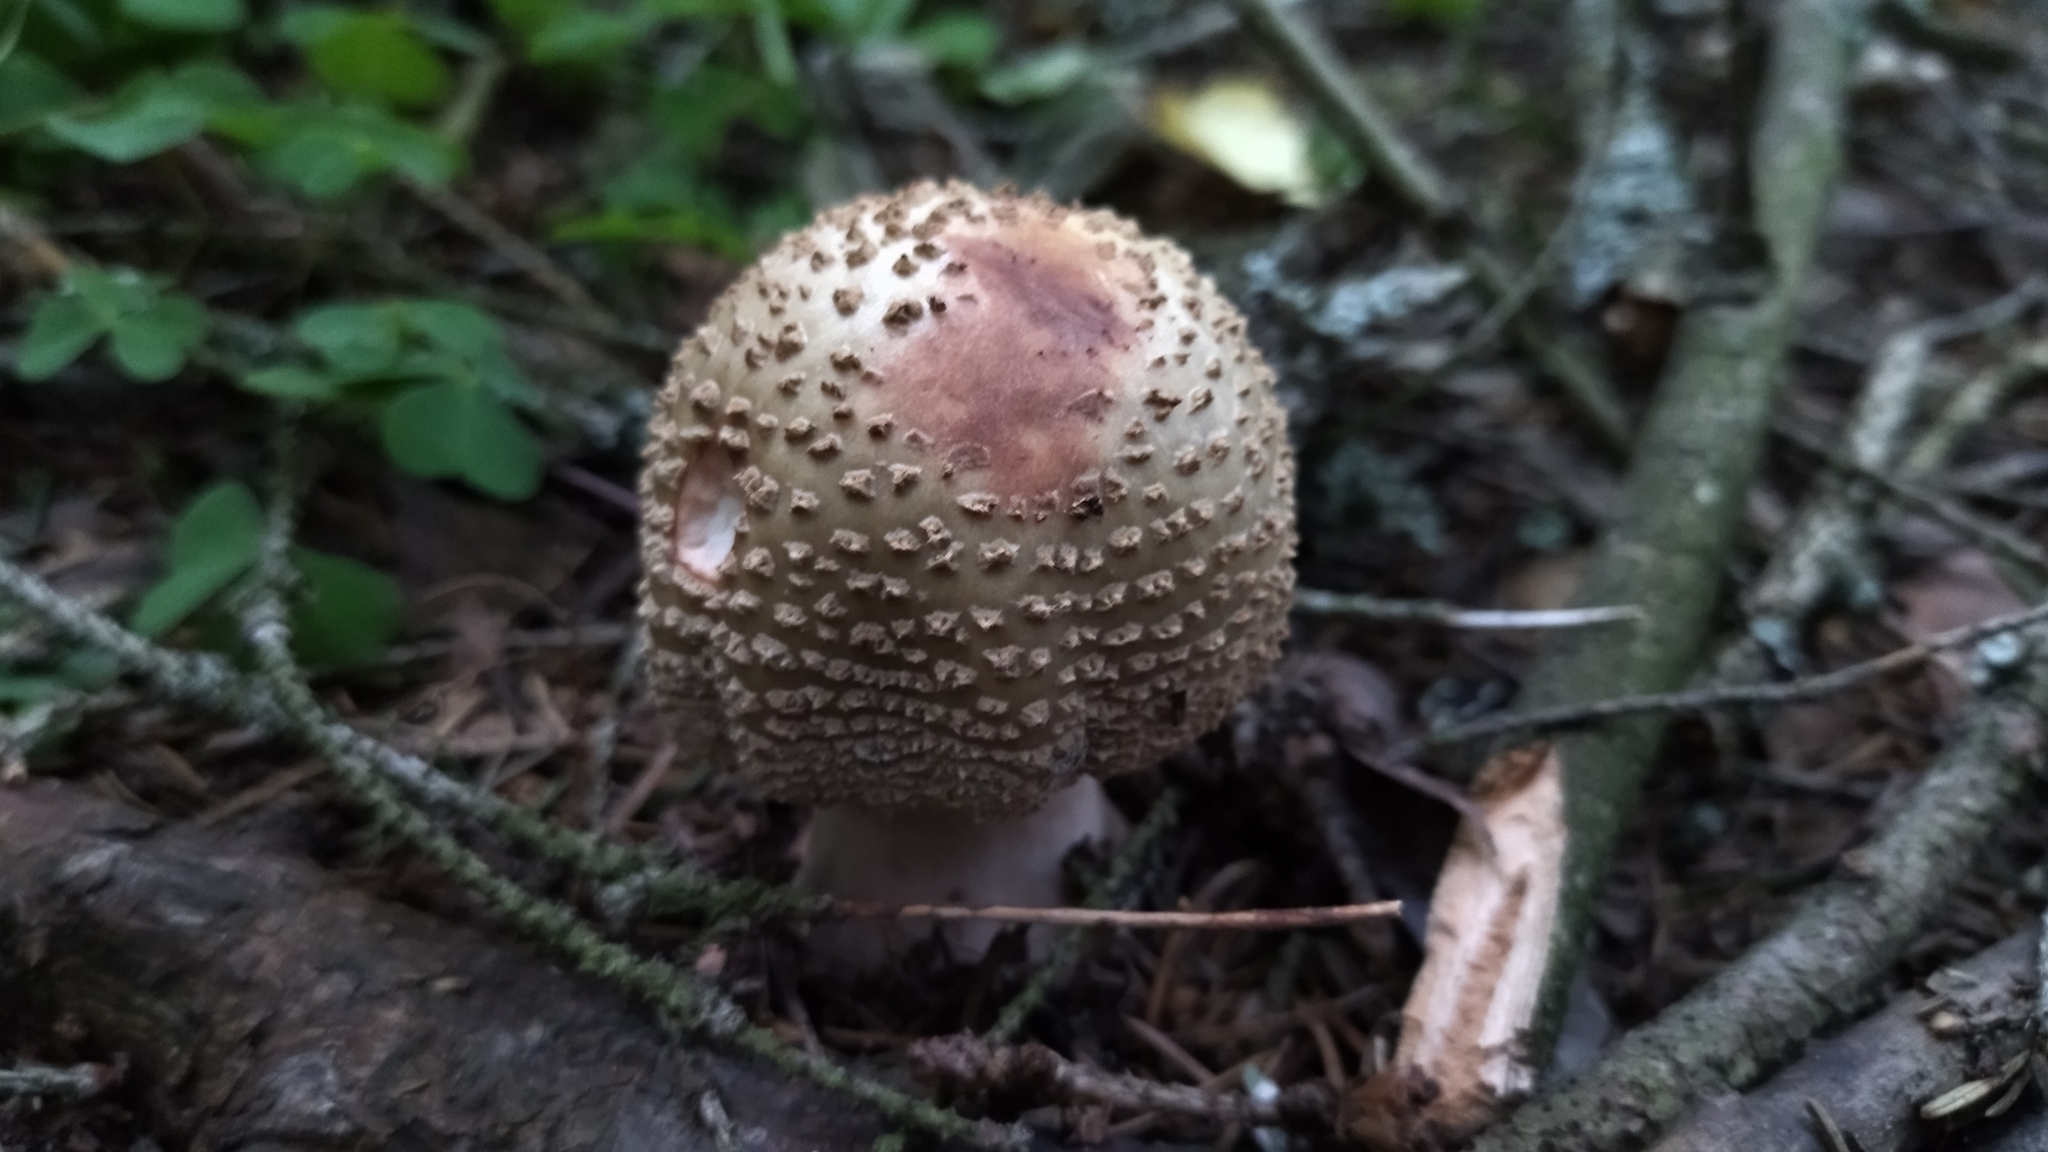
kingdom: Fungi
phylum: Basidiomycota
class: Agaricomycetes
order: Agaricales
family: Amanitaceae
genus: Amanita
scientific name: Amanita rubescens
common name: Blusher
